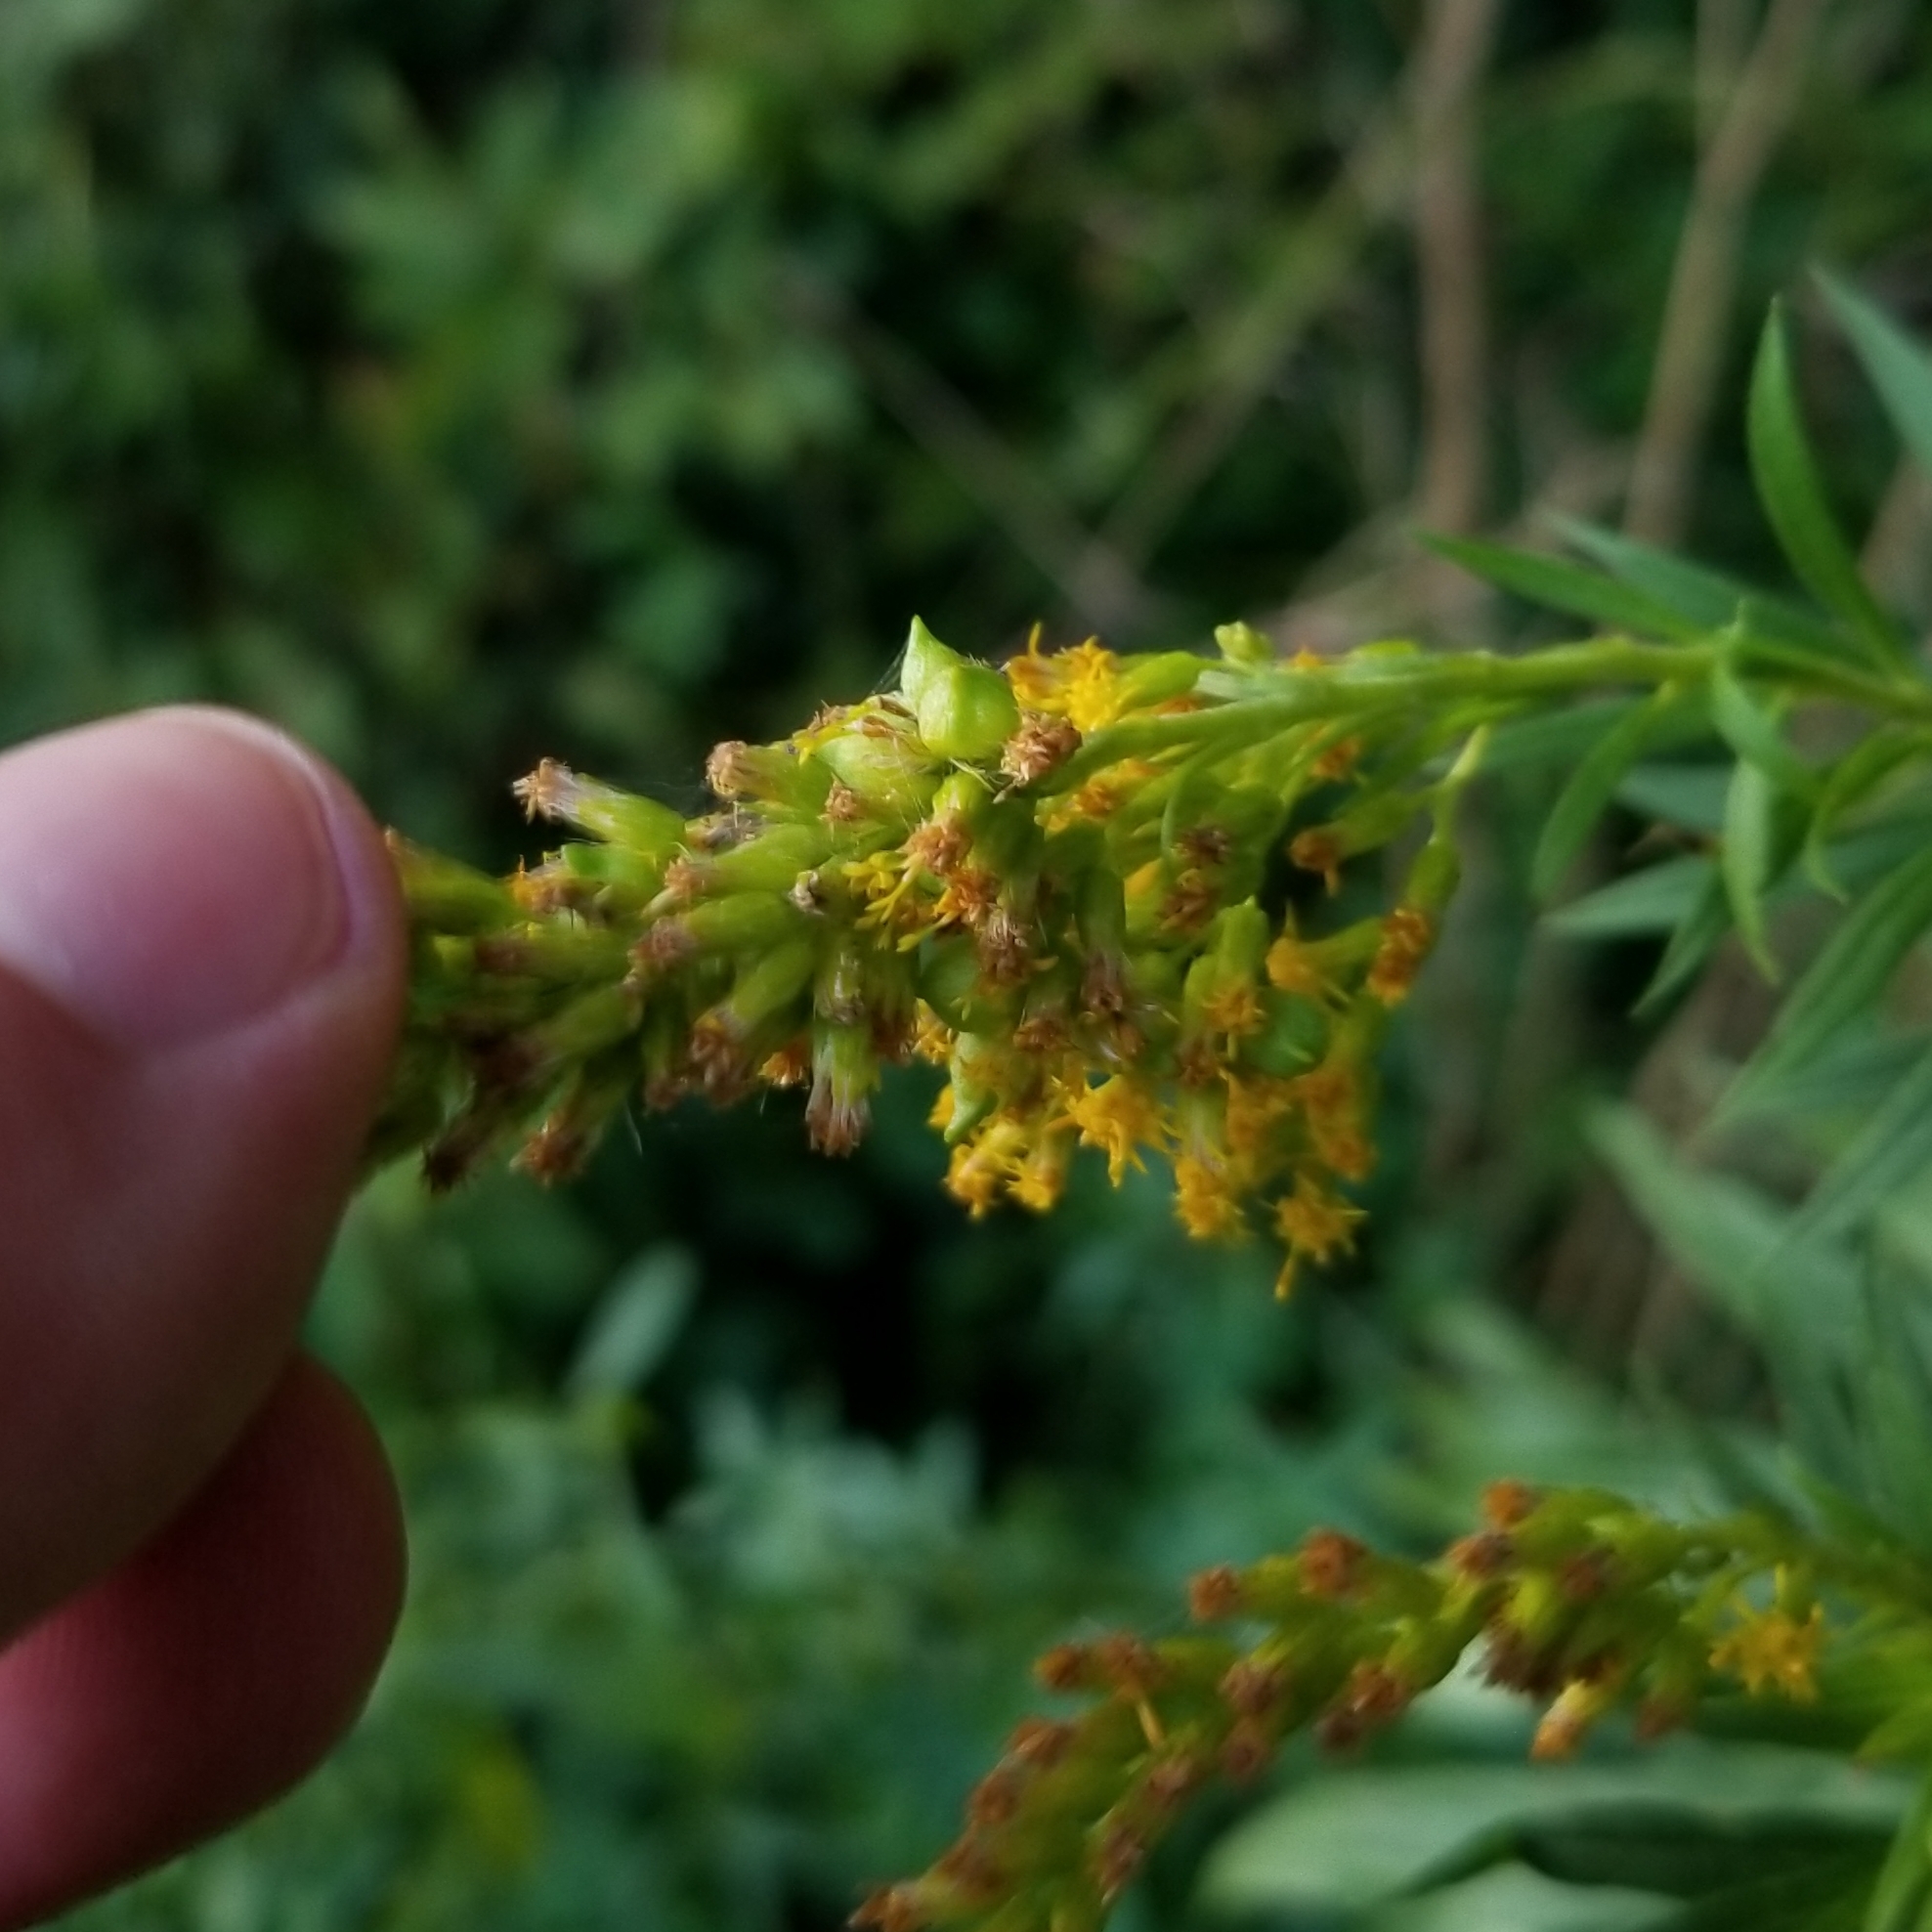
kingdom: Animalia
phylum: Arthropoda
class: Insecta
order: Diptera
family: Cecidomyiidae
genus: Schizomyia
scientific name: Schizomyia racemicola
